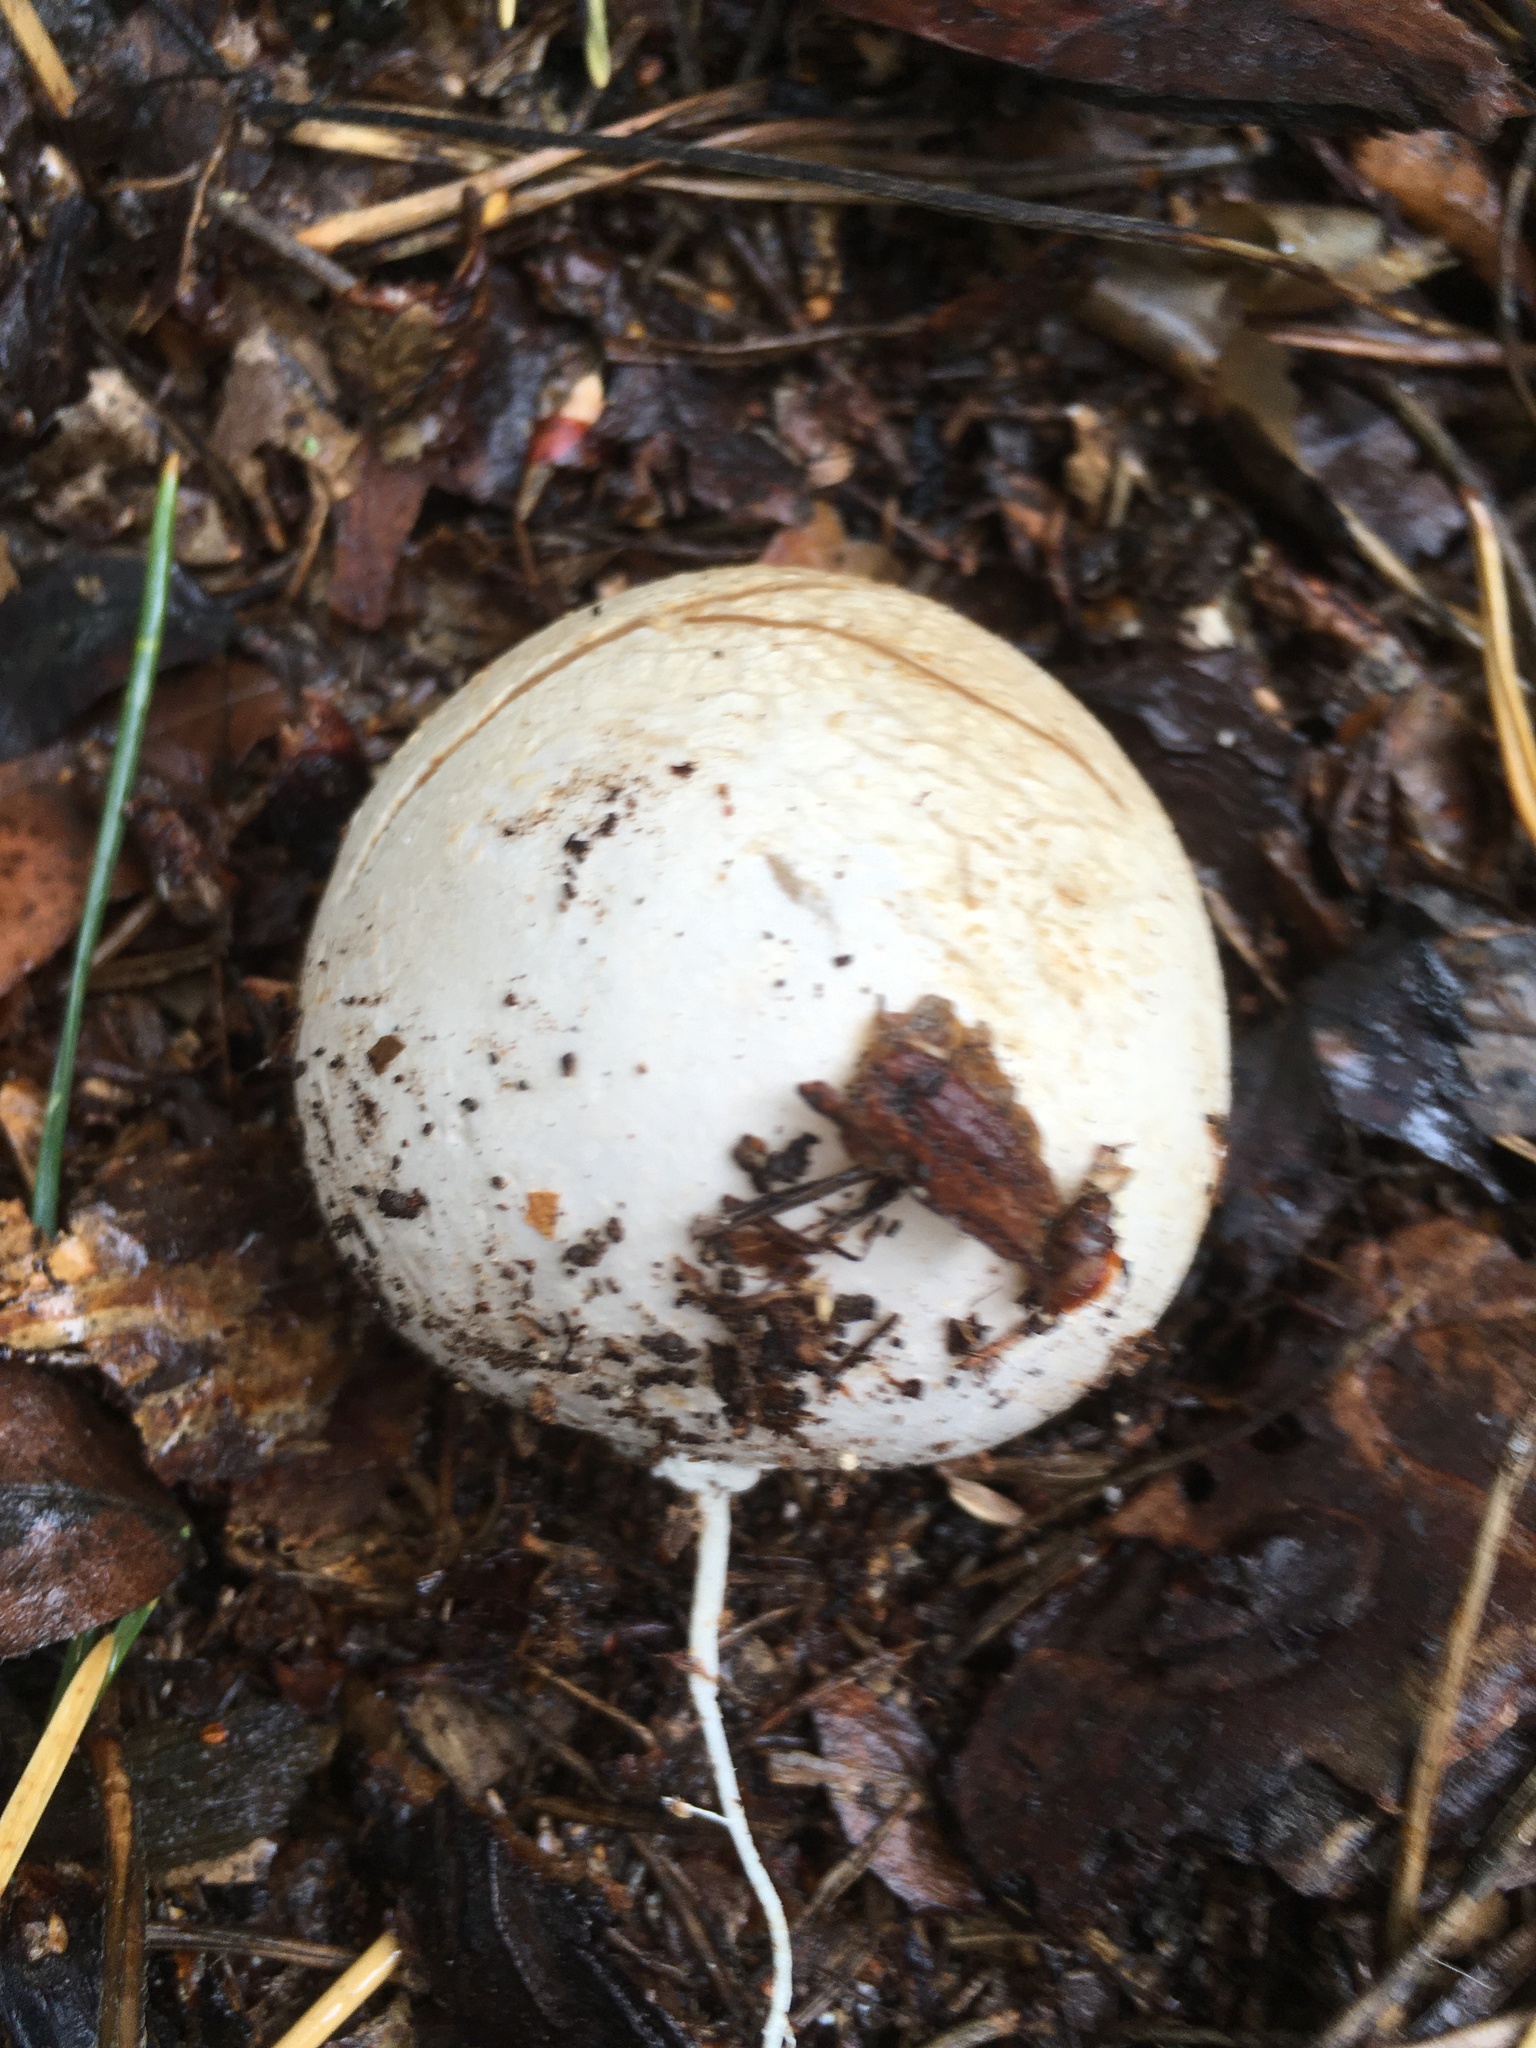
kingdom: Fungi
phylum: Basidiomycota
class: Agaricomycetes
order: Phallales
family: Phallaceae
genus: Phallus
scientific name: Phallus impudicus
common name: Common stinkhorn
